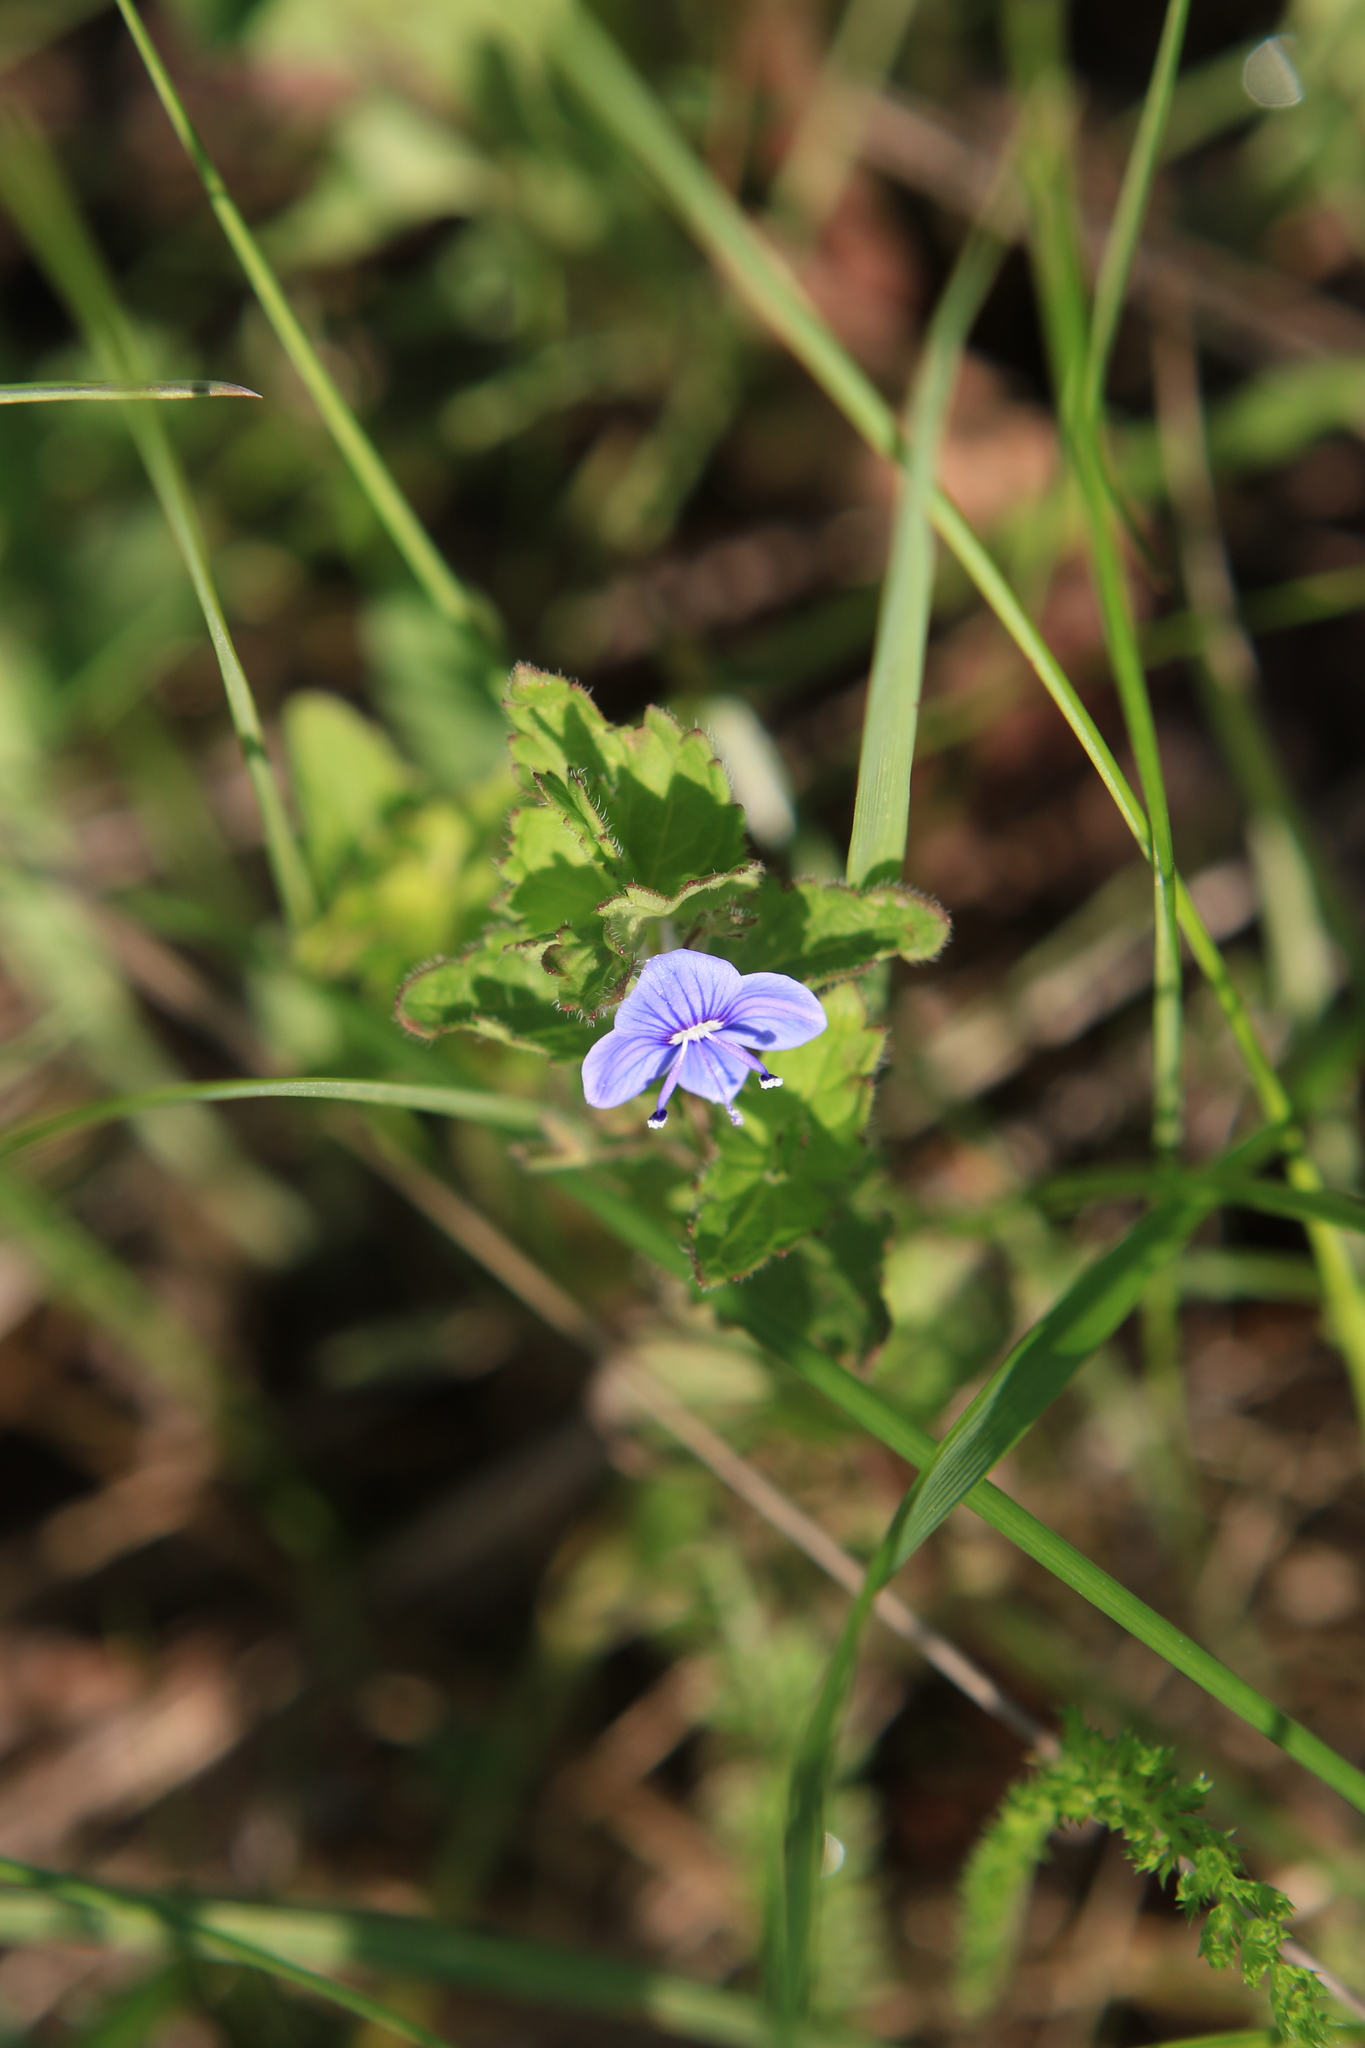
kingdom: Plantae
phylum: Tracheophyta
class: Magnoliopsida
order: Lamiales
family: Plantaginaceae
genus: Veronica
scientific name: Veronica chamaedrys
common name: Germander speedwell
